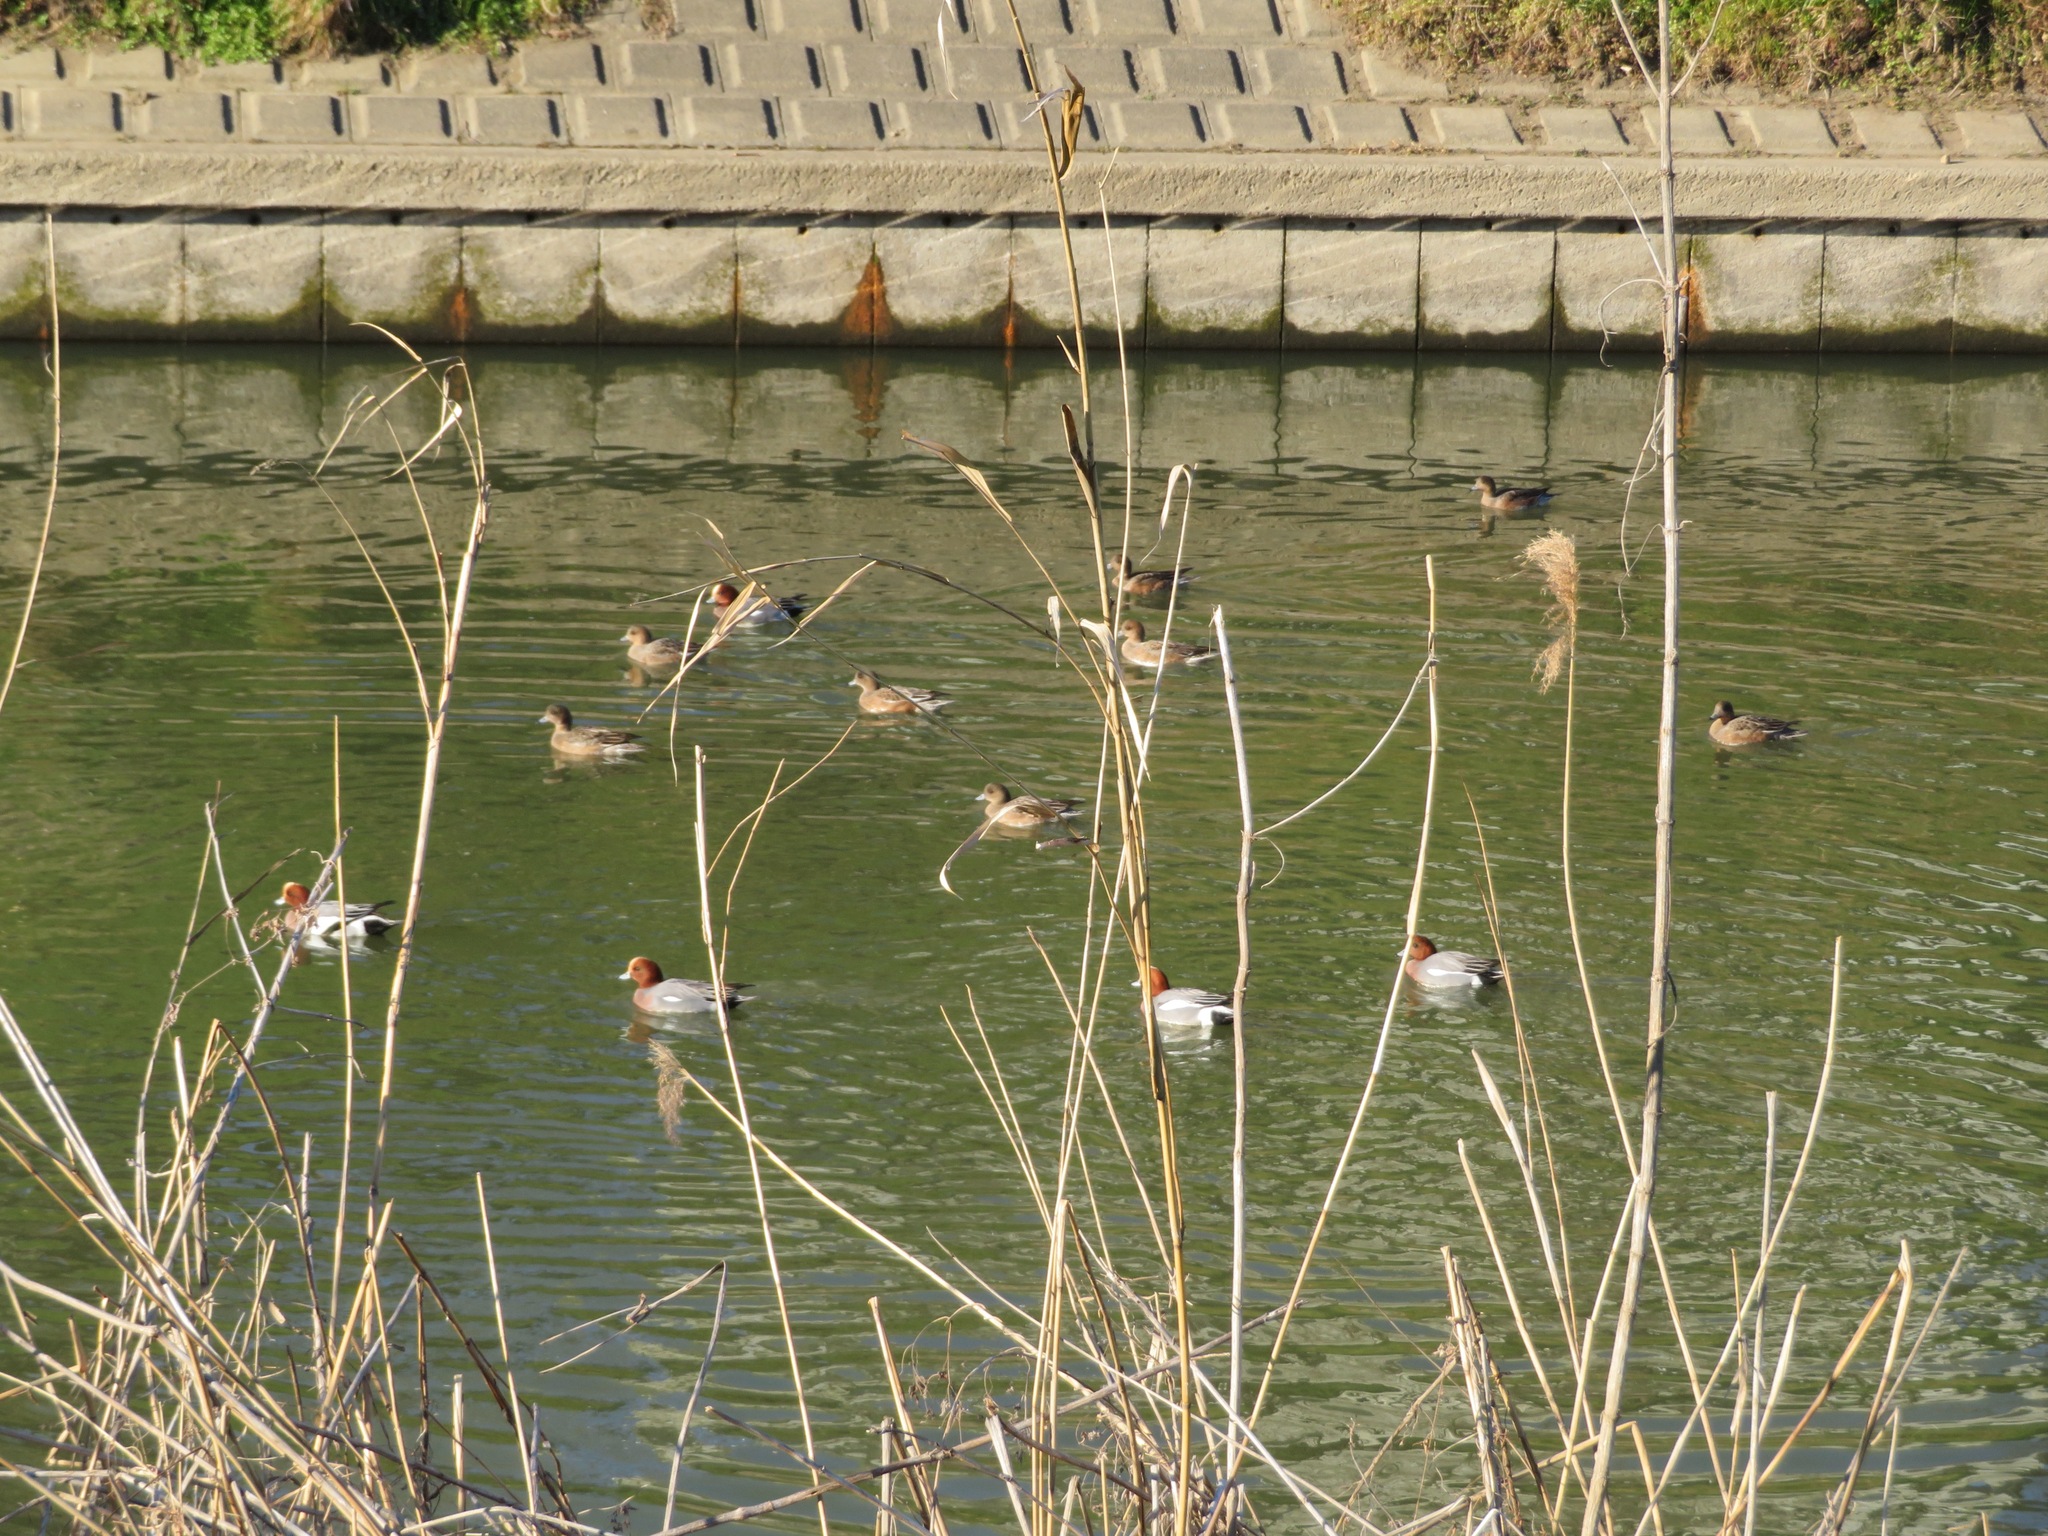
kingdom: Animalia
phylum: Chordata
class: Aves
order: Anseriformes
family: Anatidae
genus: Mareca
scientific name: Mareca penelope
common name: Eurasian wigeon
